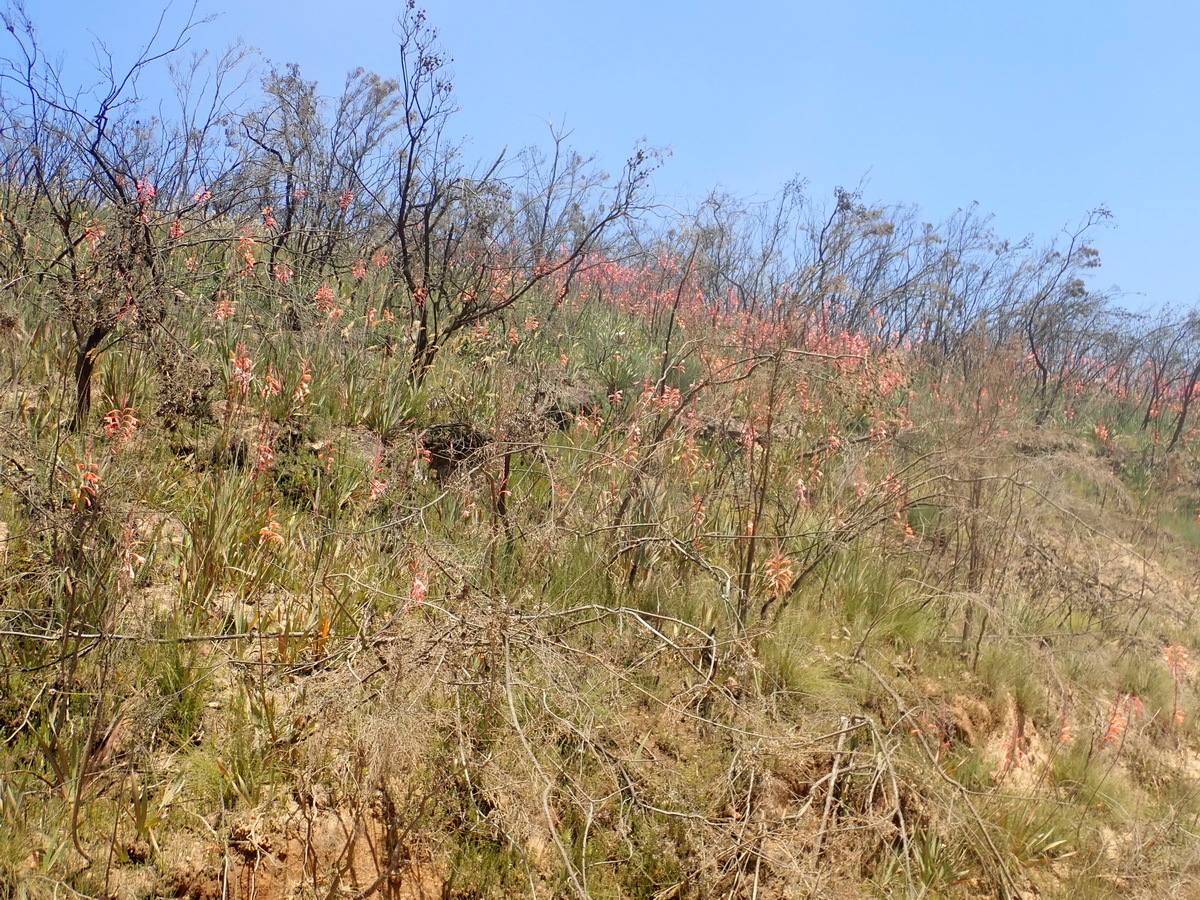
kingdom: Plantae
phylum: Tracheophyta
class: Liliopsida
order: Asparagales
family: Iridaceae
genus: Watsonia
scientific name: Watsonia pillansii
